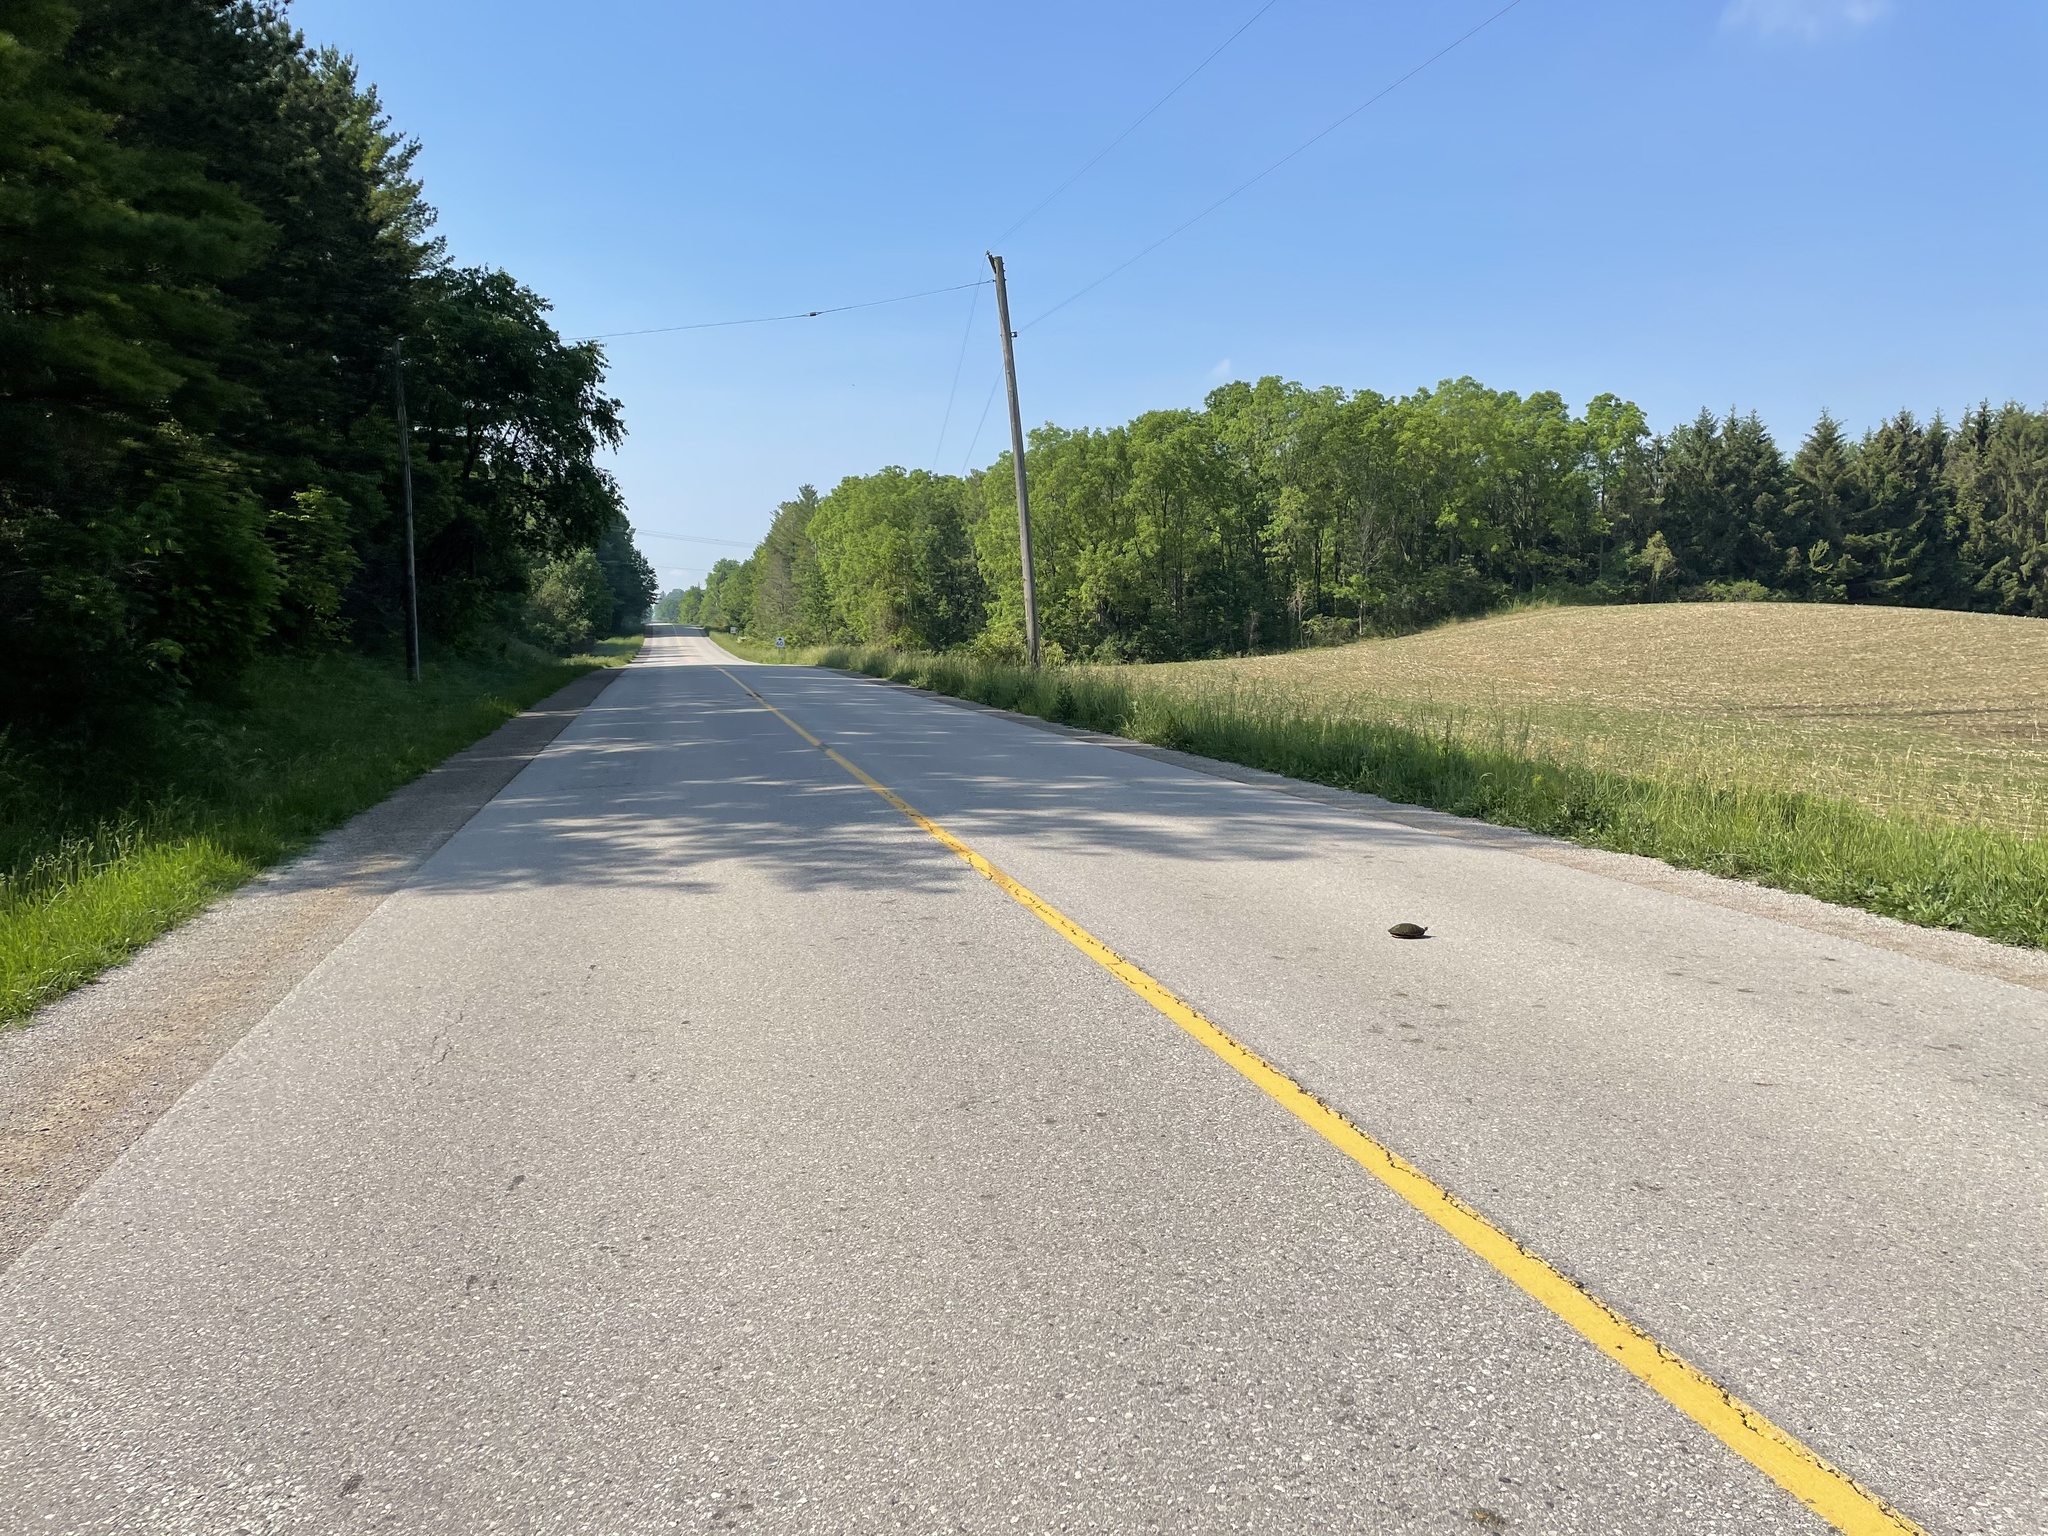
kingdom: Animalia
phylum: Chordata
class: Testudines
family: Emydidae
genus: Chrysemys
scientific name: Chrysemys picta
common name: Painted turtle
